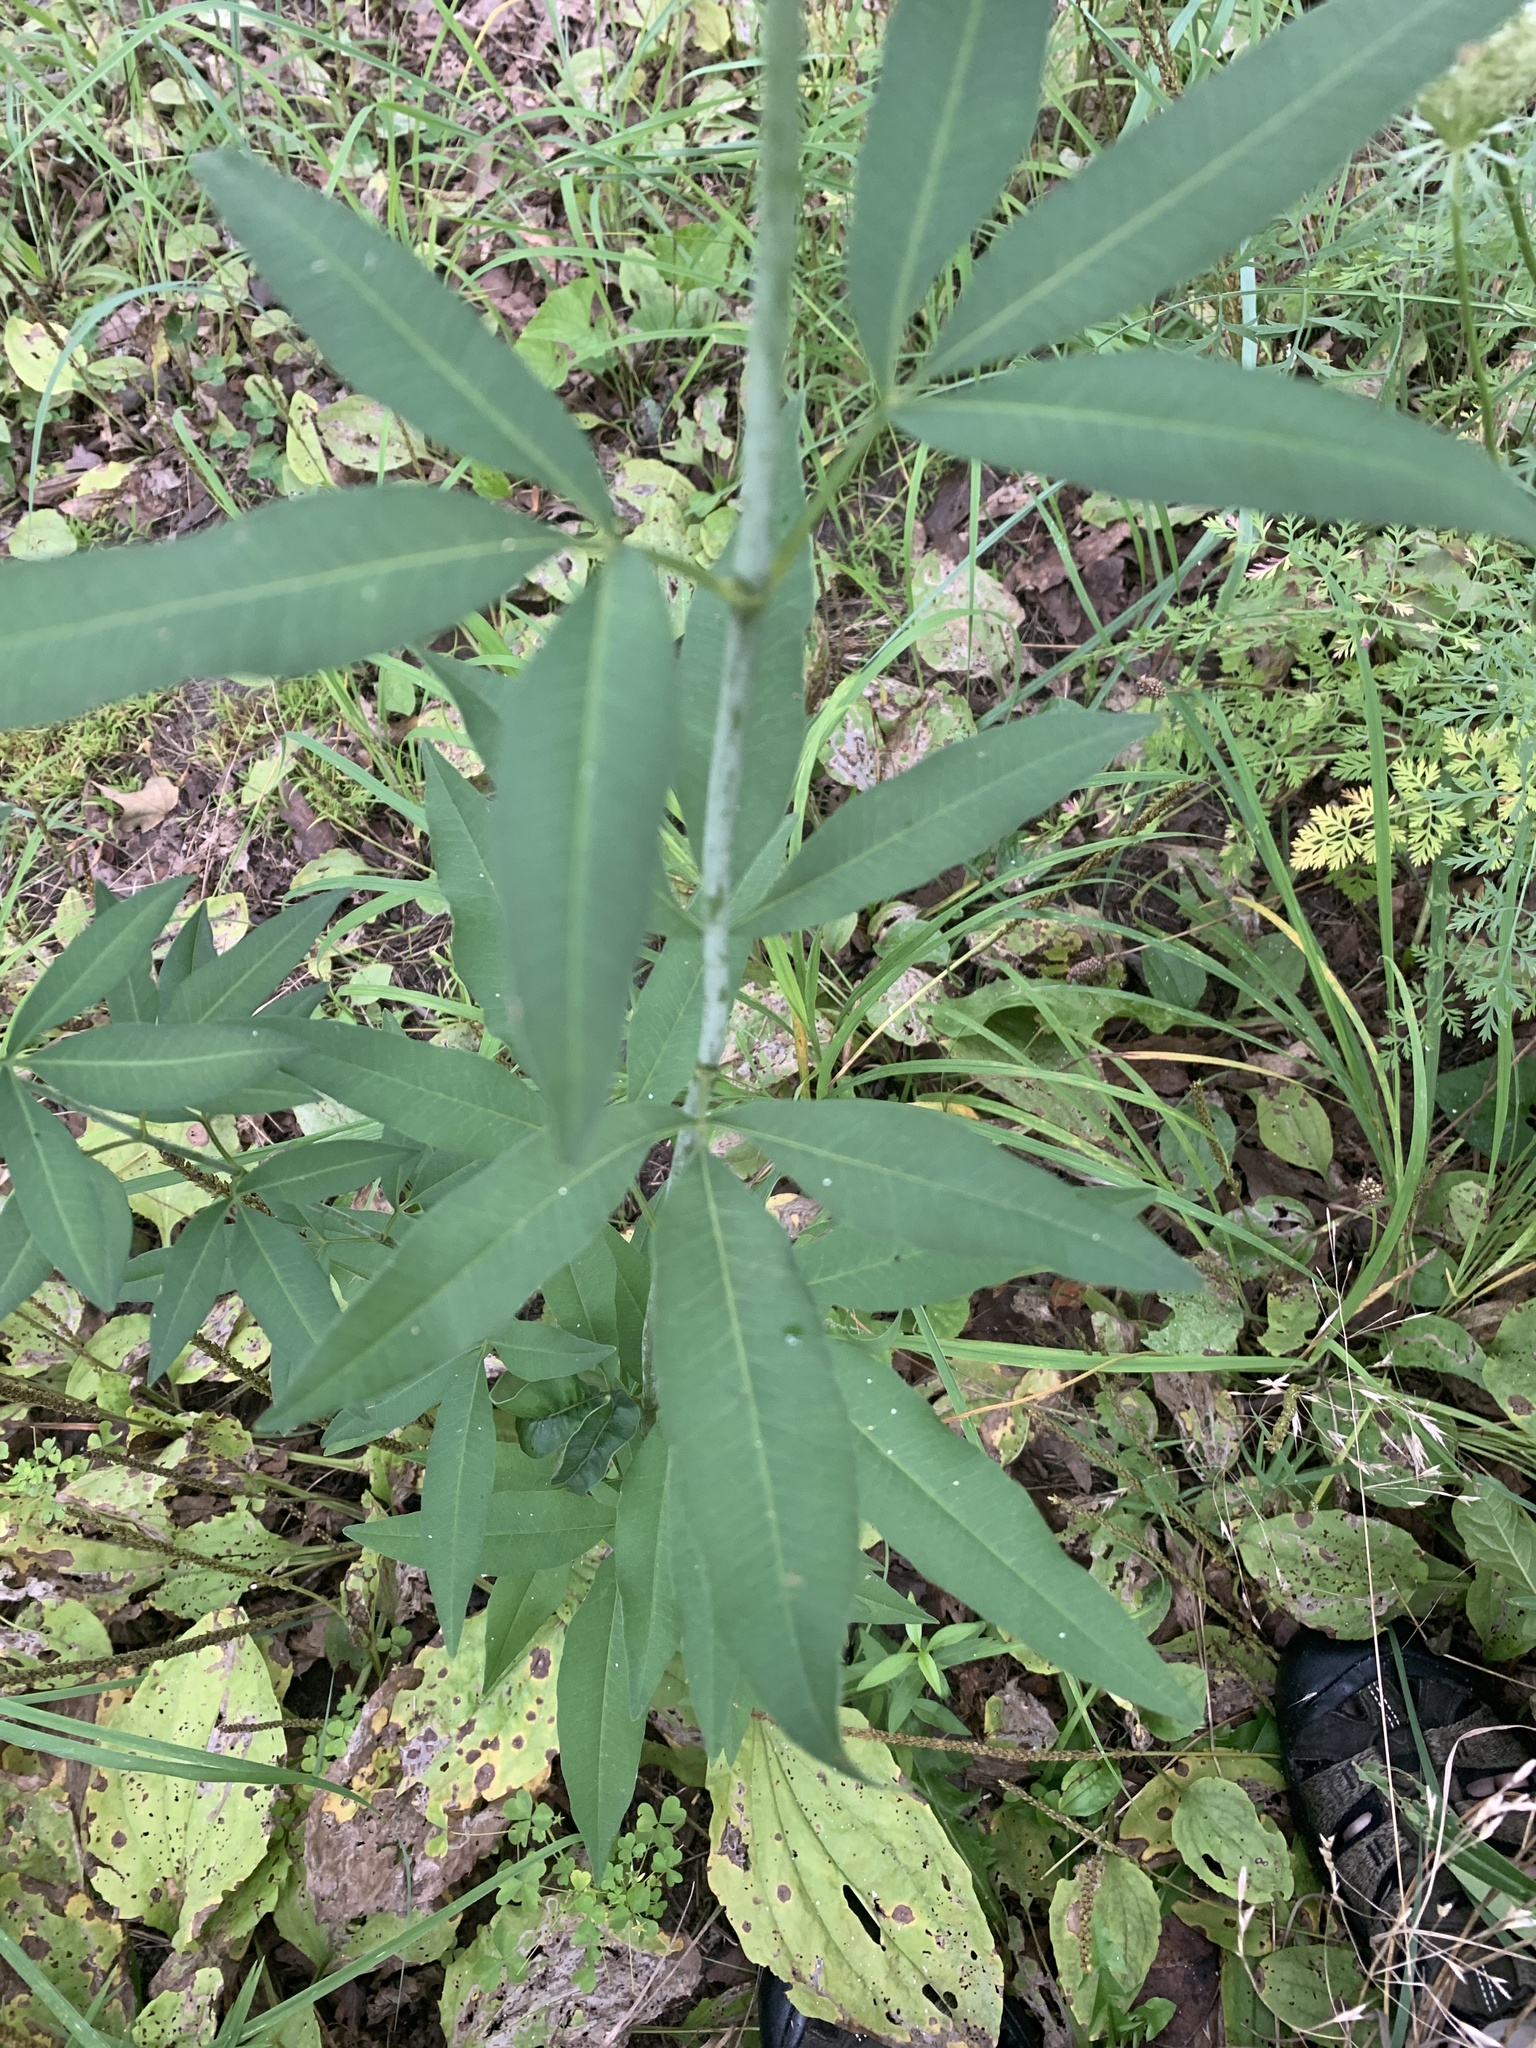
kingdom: Plantae
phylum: Tracheophyta
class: Magnoliopsida
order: Asterales
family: Asteraceae
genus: Coreopsis
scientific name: Coreopsis tripteris
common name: Tall coreopsis
